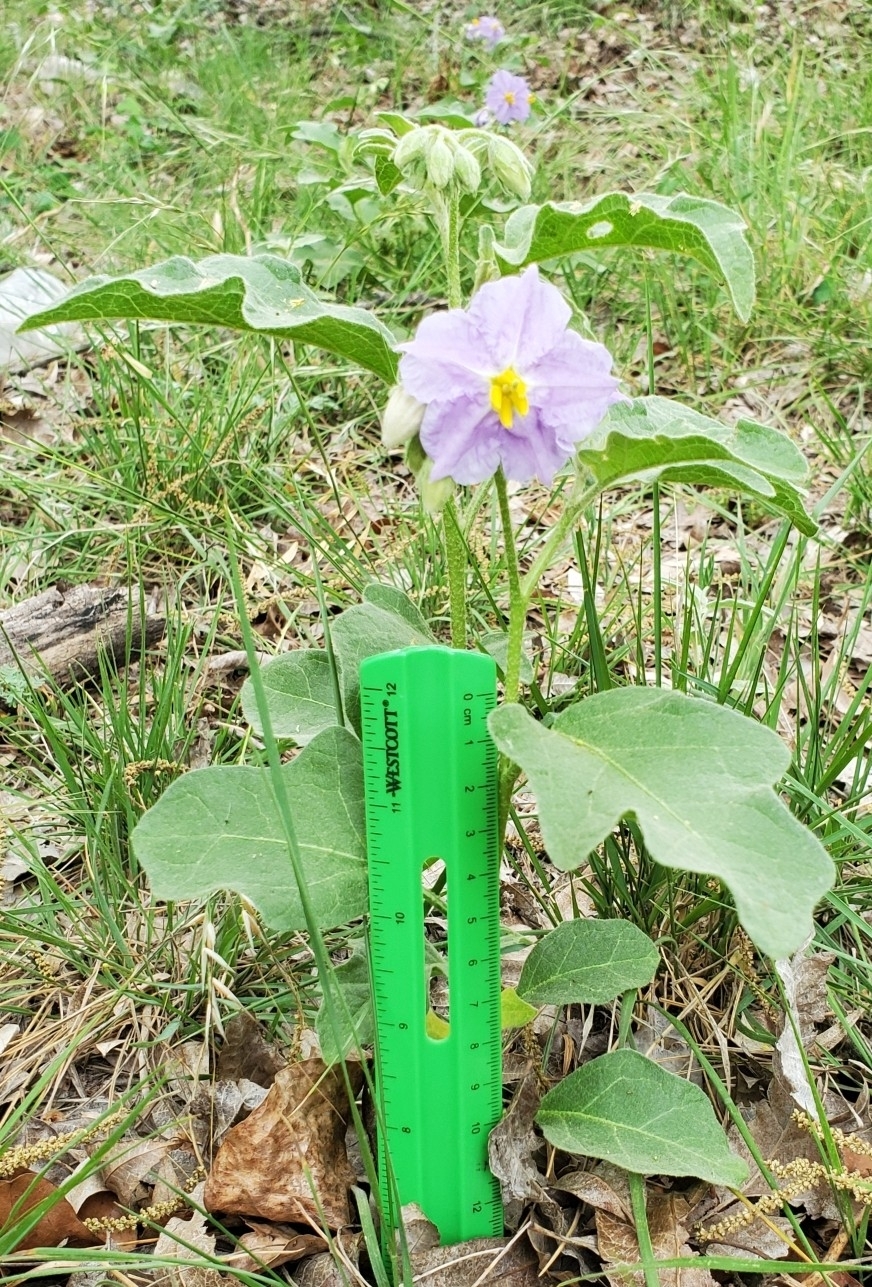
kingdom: Plantae
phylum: Tracheophyta
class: Magnoliopsida
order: Solanales
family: Solanaceae
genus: Solanum
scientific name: Solanum dimidiatum
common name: Carolina horse-nettle
